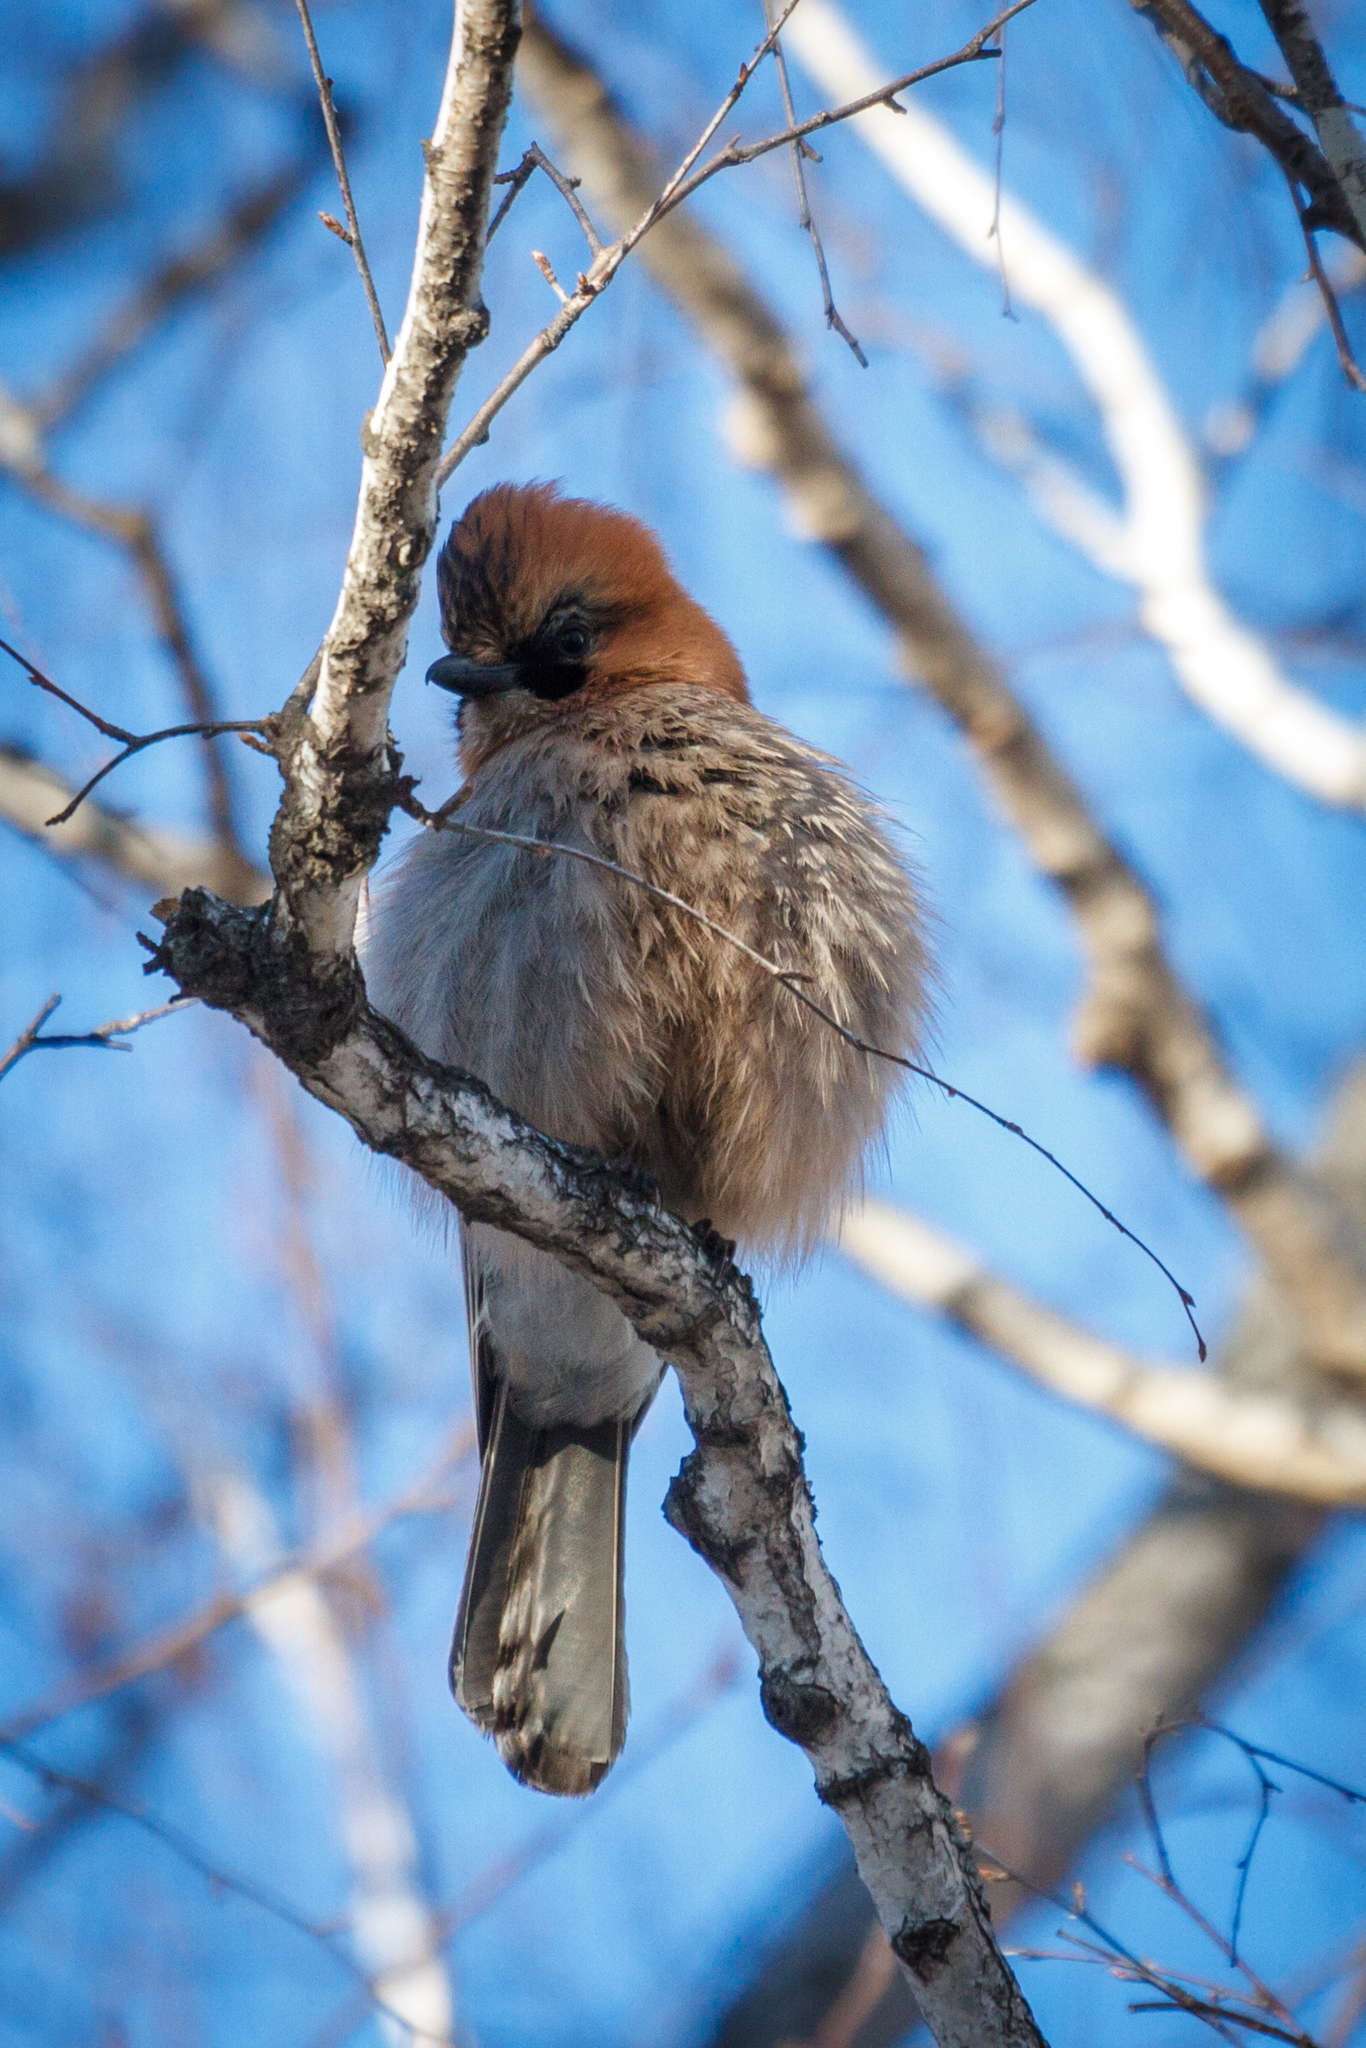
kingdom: Animalia
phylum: Chordata
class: Aves
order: Passeriformes
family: Corvidae
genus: Garrulus
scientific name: Garrulus glandarius
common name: Eurasian jay
